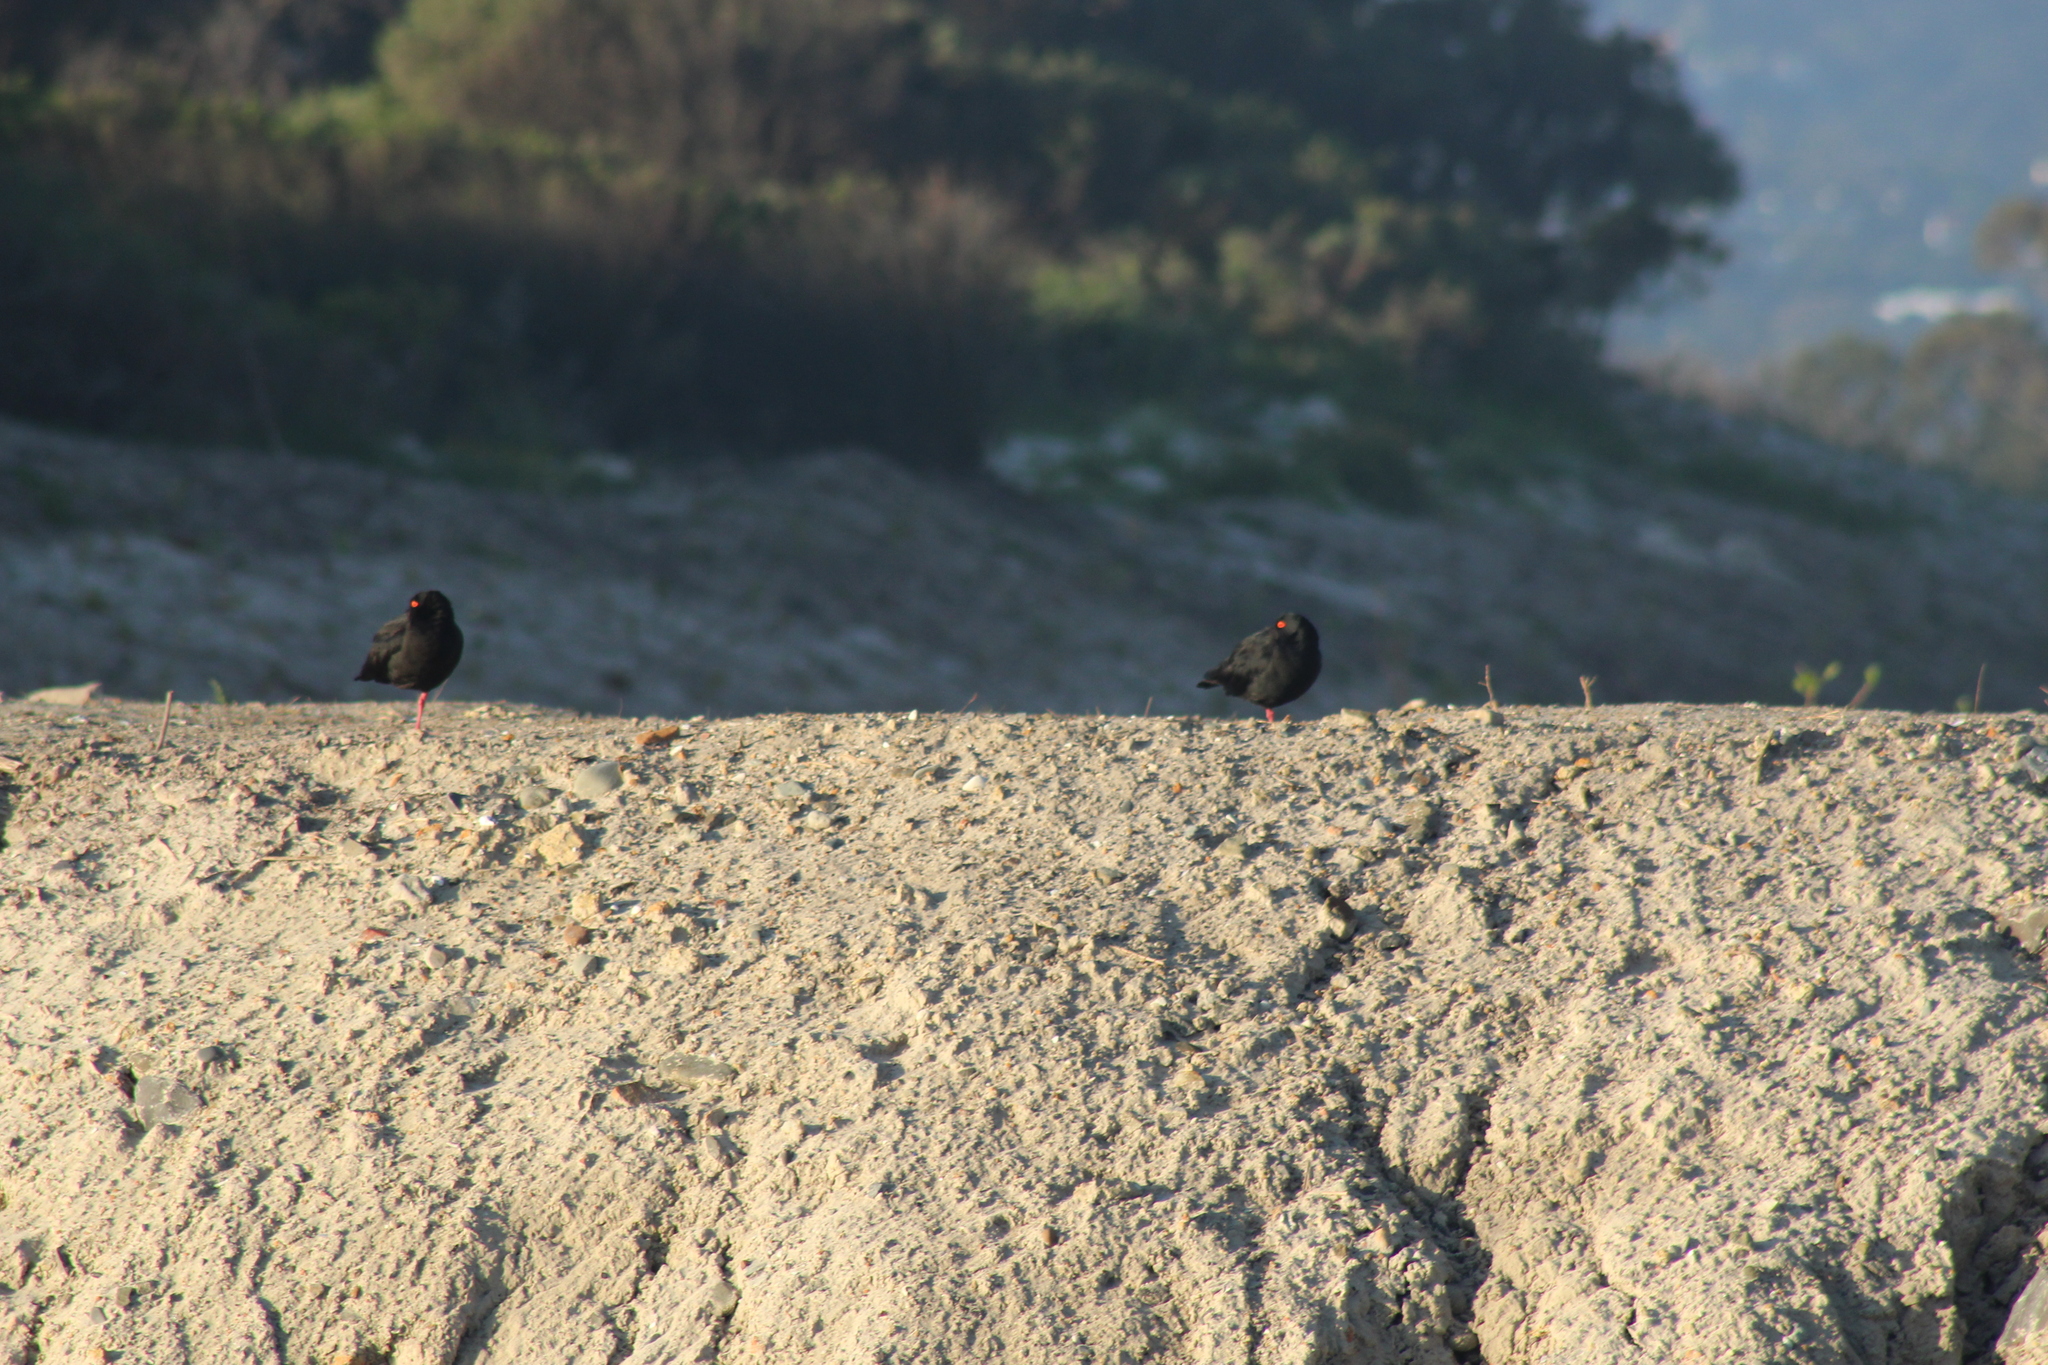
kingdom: Animalia
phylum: Chordata
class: Aves
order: Charadriiformes
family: Haematopodidae
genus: Haematopus
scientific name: Haematopus moquini
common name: African oystercatcher
